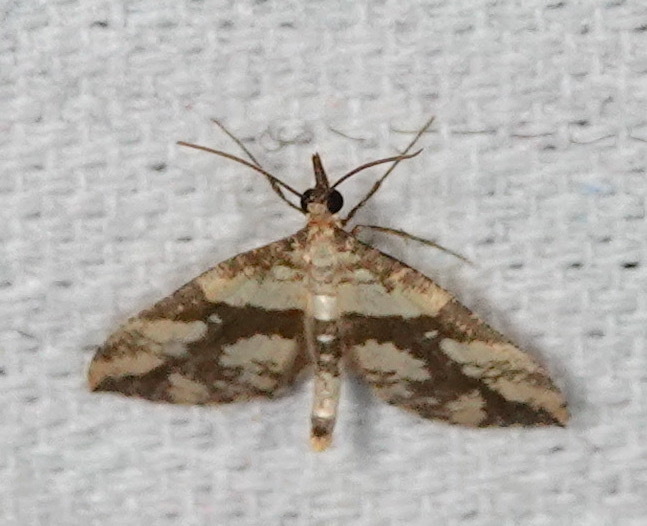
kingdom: Animalia
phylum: Arthropoda
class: Insecta
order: Lepidoptera
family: Geometridae
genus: Psaliodes
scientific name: Psaliodes posides
